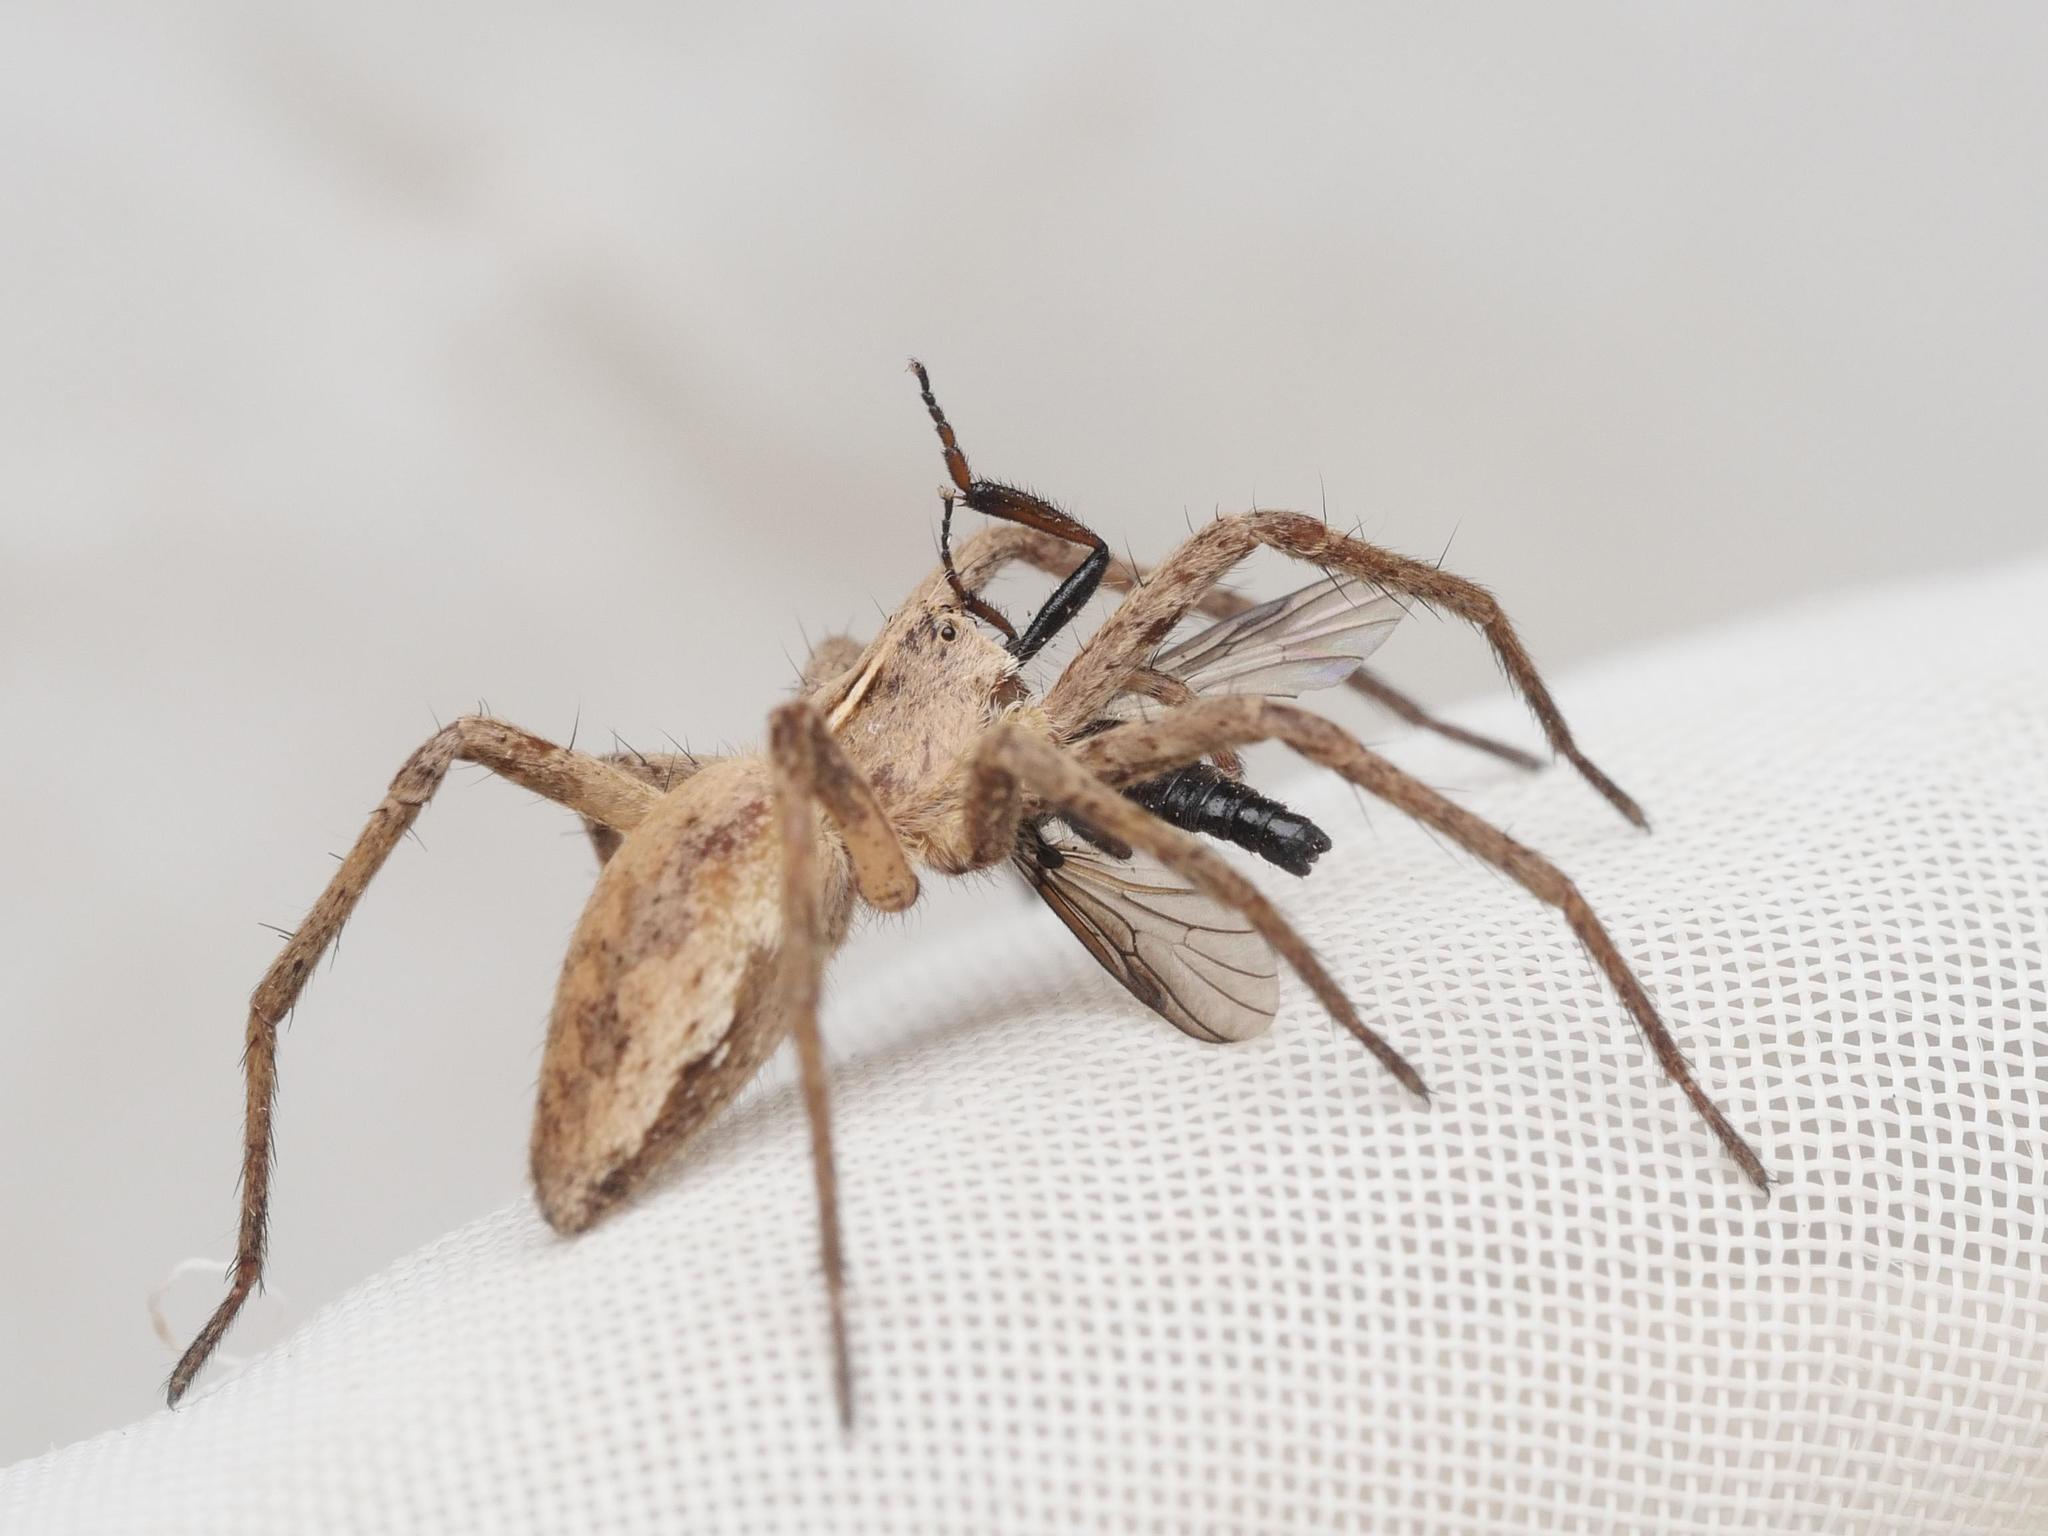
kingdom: Animalia
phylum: Arthropoda
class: Arachnida
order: Araneae
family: Pisauridae
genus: Pisaura
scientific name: Pisaura mirabilis
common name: Tent spider
